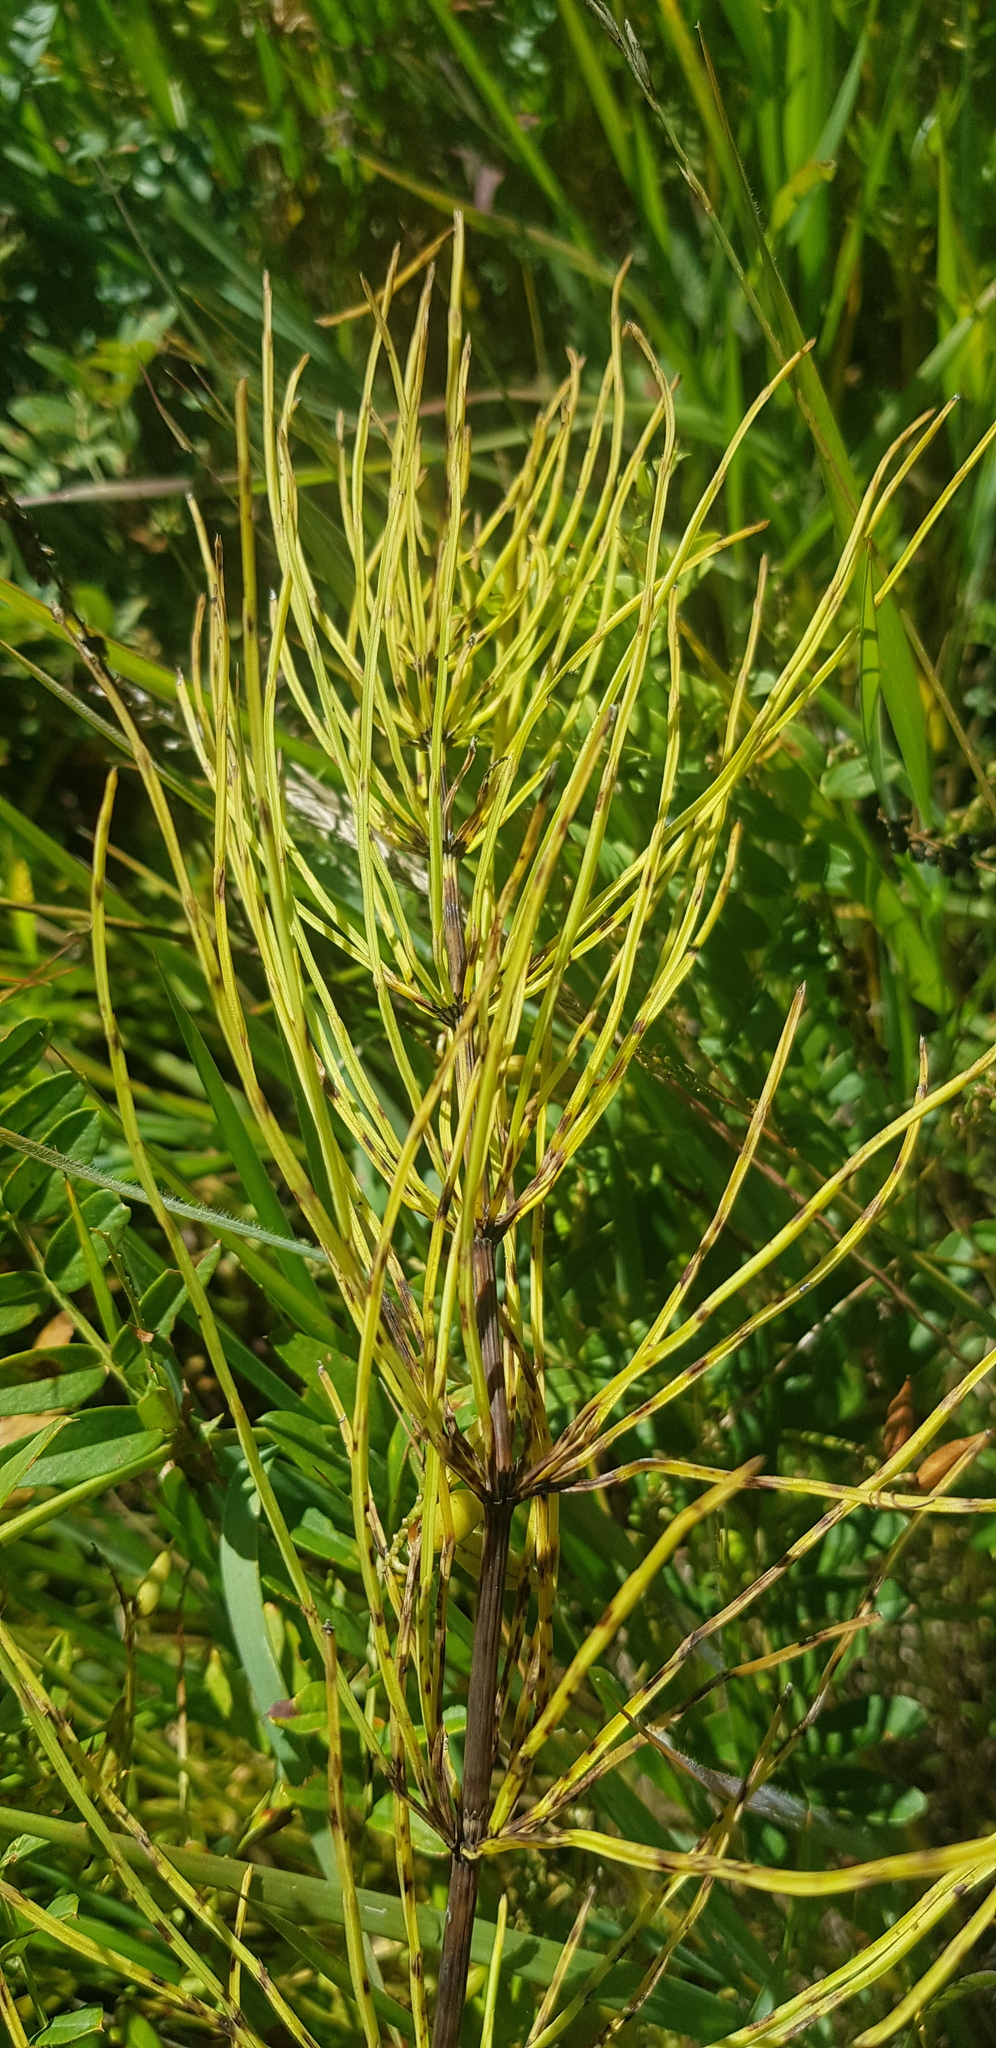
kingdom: Plantae
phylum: Tracheophyta
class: Polypodiopsida
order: Equisetales
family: Equisetaceae
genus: Equisetum
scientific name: Equisetum arvense
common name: Field horsetail
